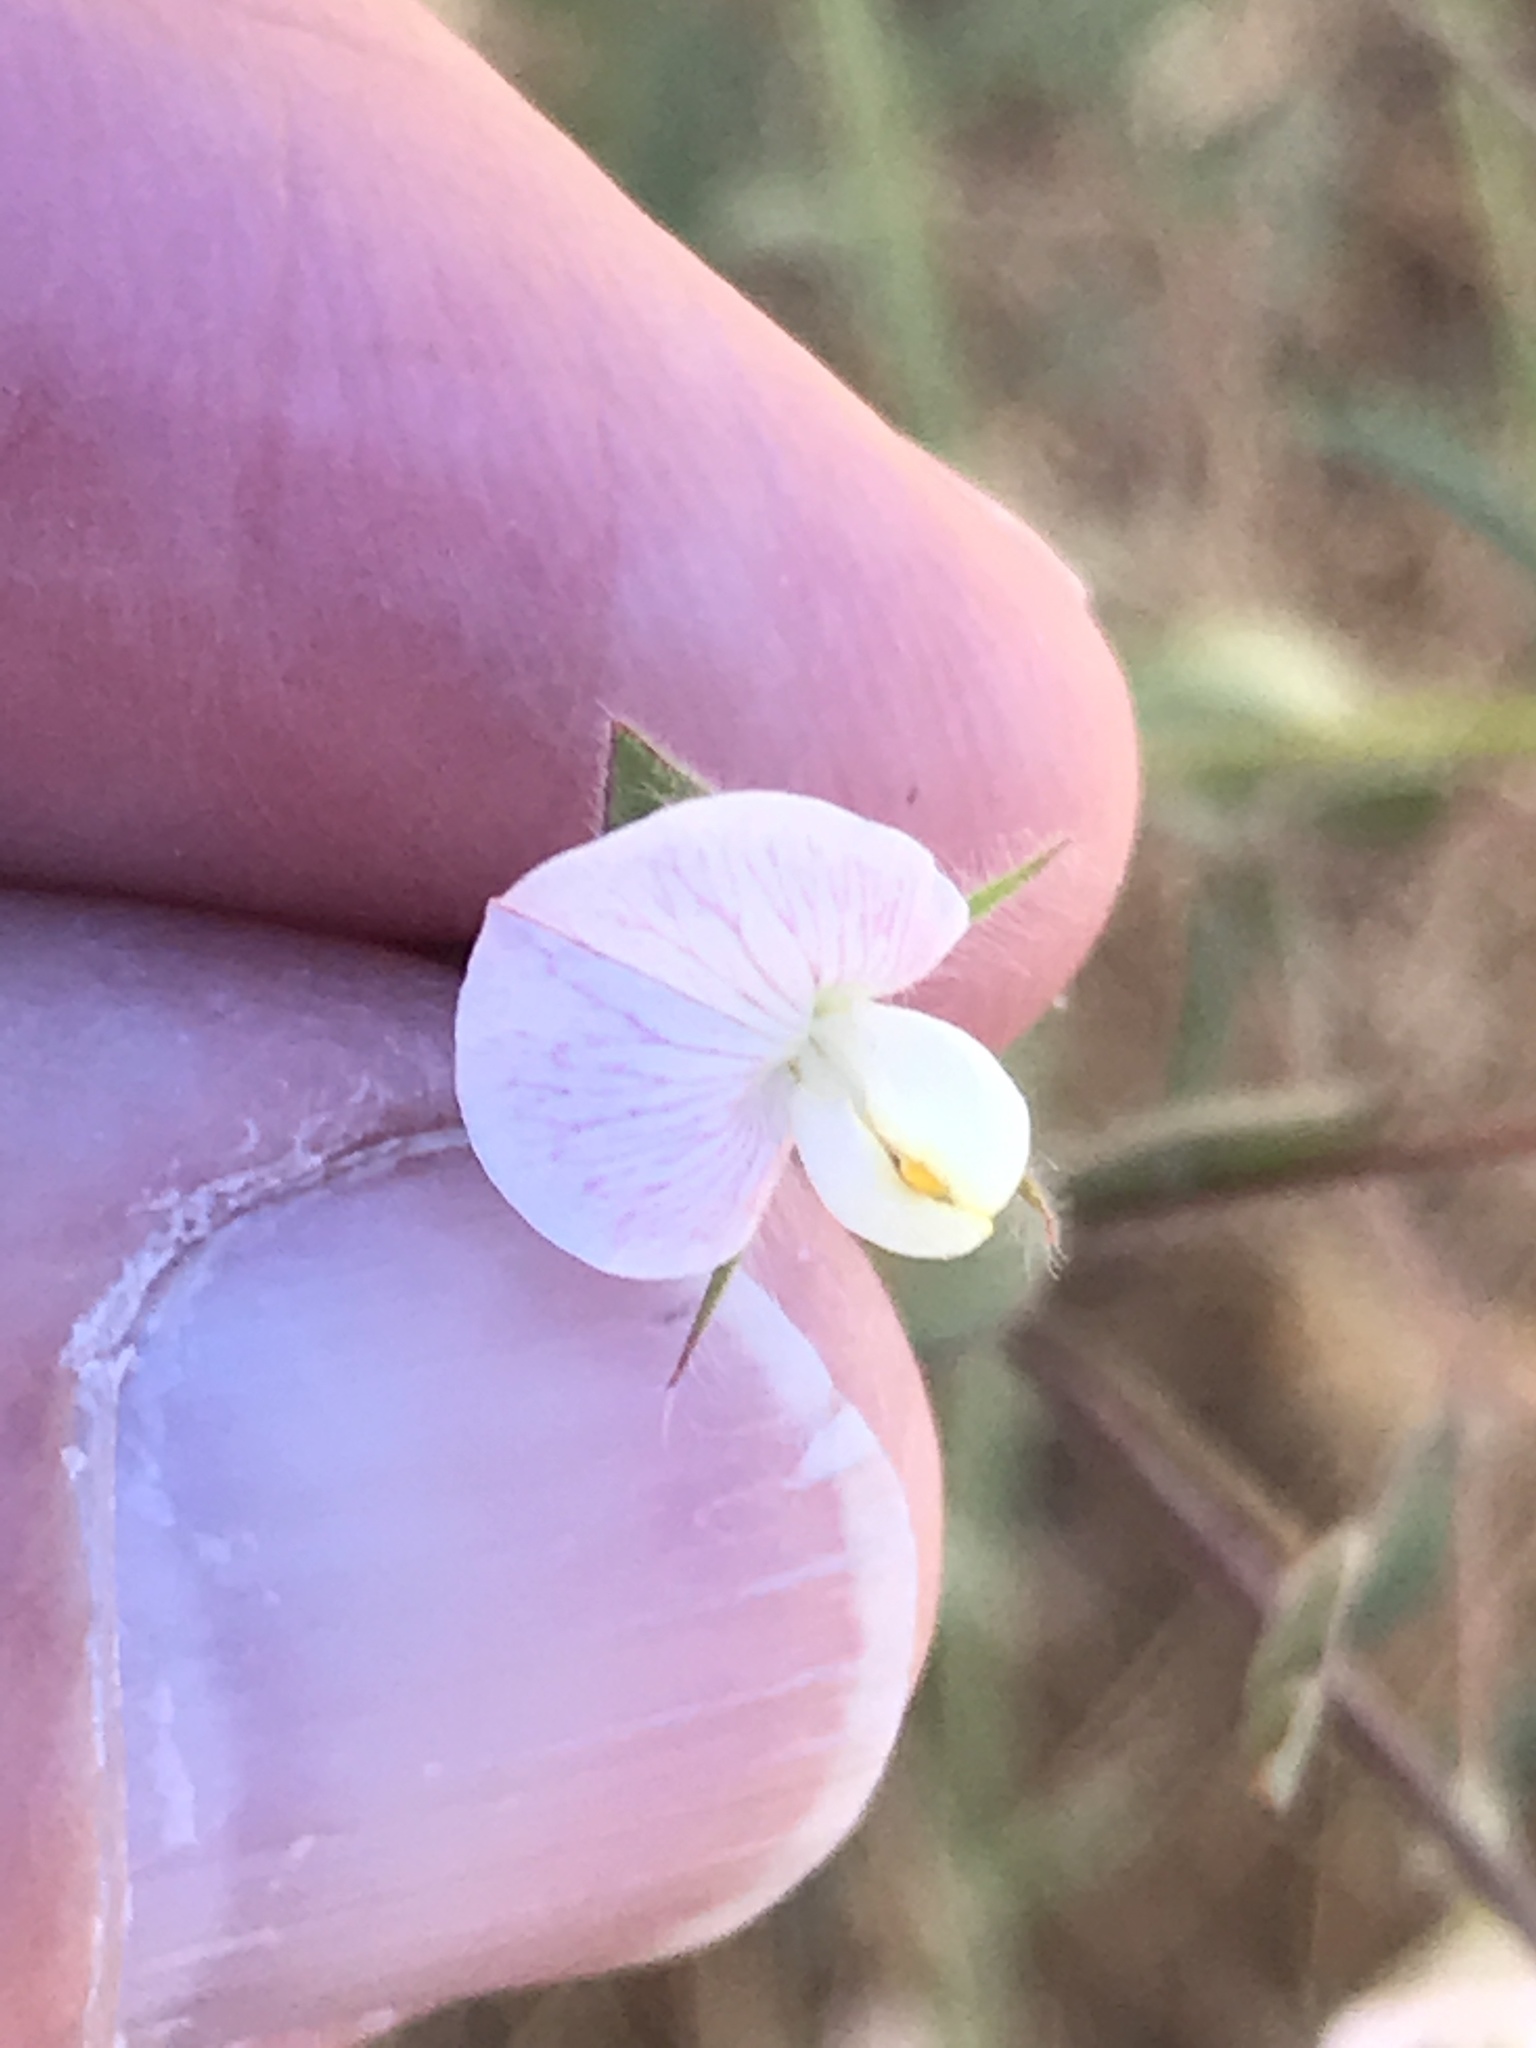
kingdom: Plantae
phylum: Tracheophyta
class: Magnoliopsida
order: Fabales
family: Fabaceae
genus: Acmispon
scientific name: Acmispon americanus
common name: American bird's-foot trefoil
